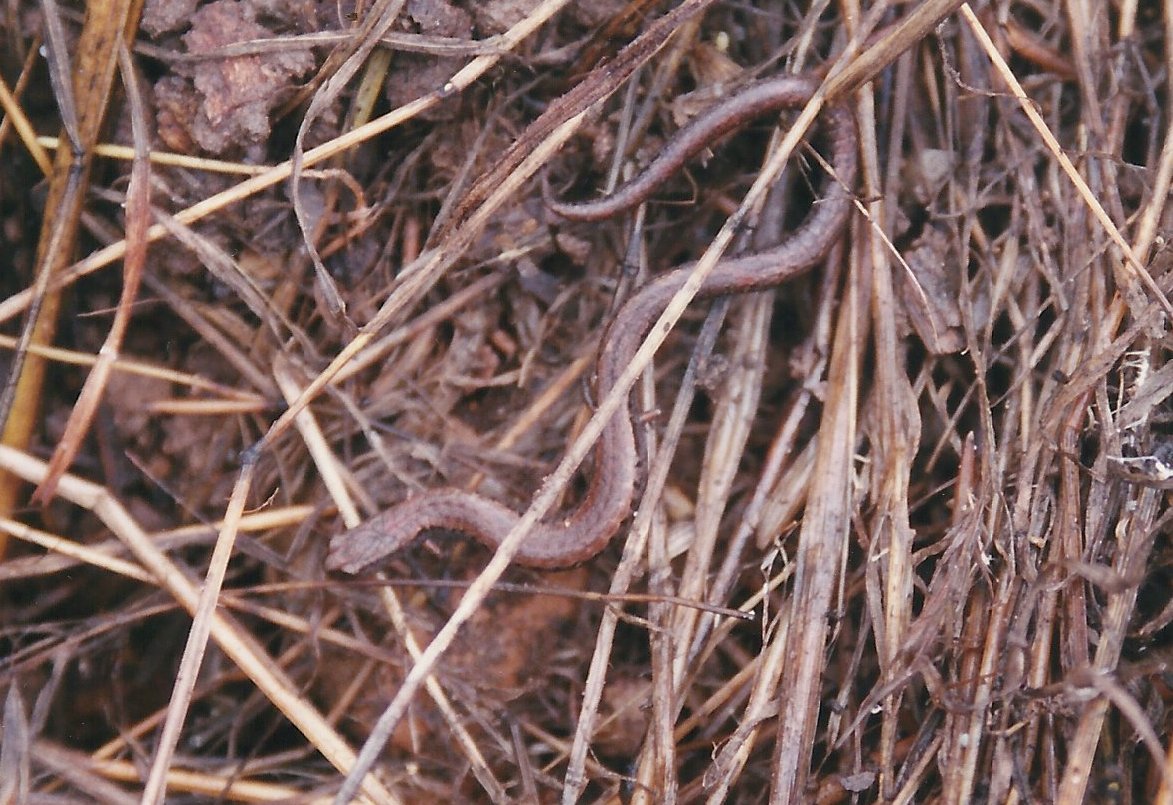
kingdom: Animalia
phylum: Chordata
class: Amphibia
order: Caudata
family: Plethodontidae
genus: Batrachoseps
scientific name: Batrachoseps attenuatus
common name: California slender salamander
